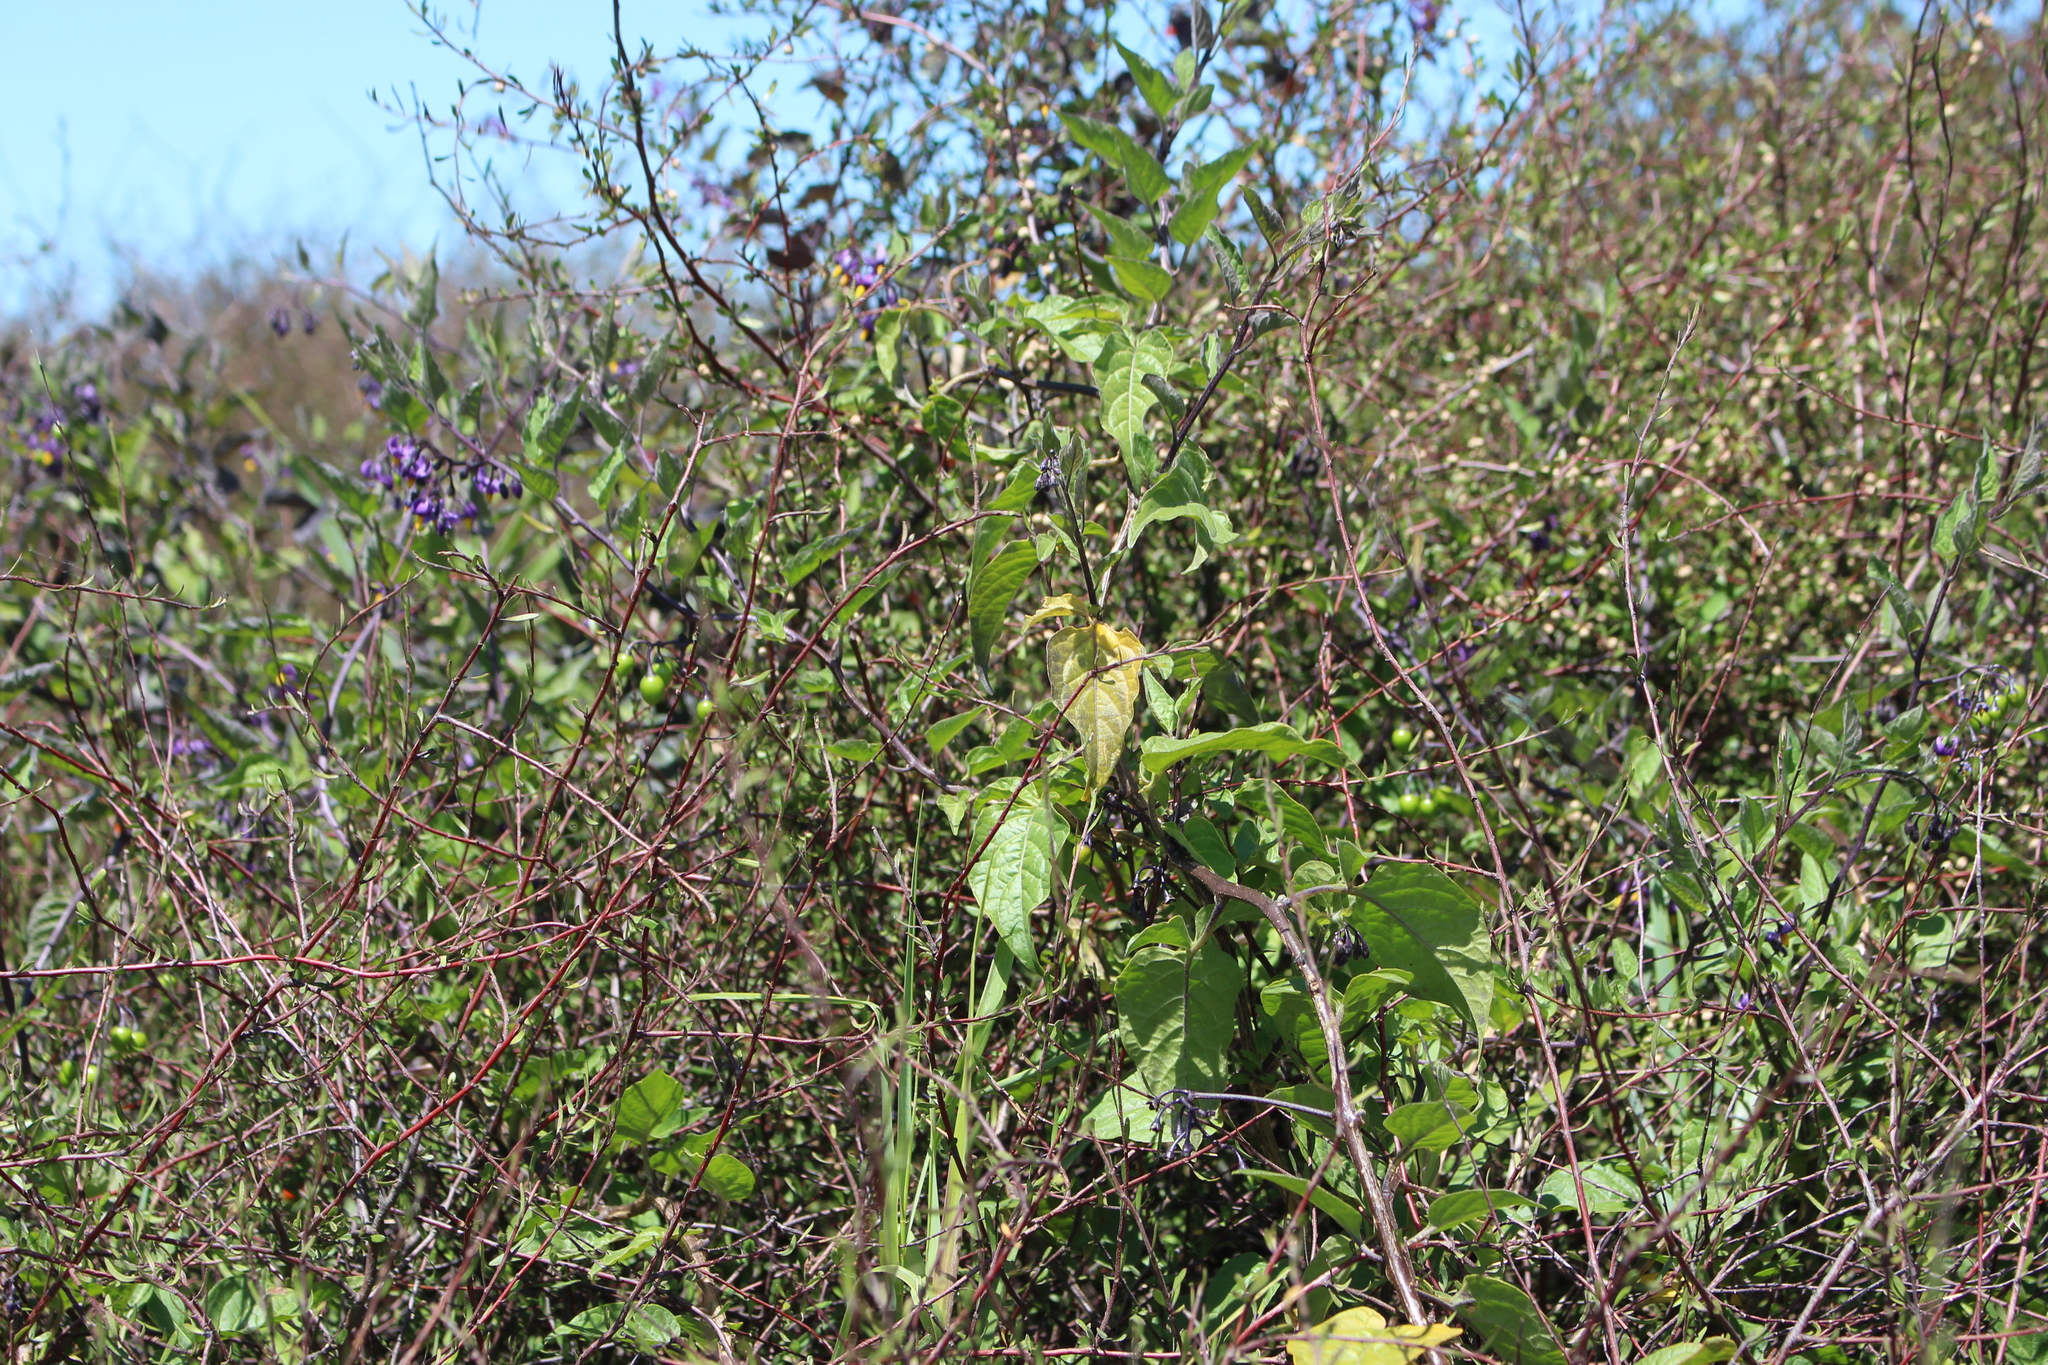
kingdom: Plantae
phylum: Tracheophyta
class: Magnoliopsida
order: Solanales
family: Solanaceae
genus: Solanum
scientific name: Solanum dulcamara
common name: Climbing nightshade
